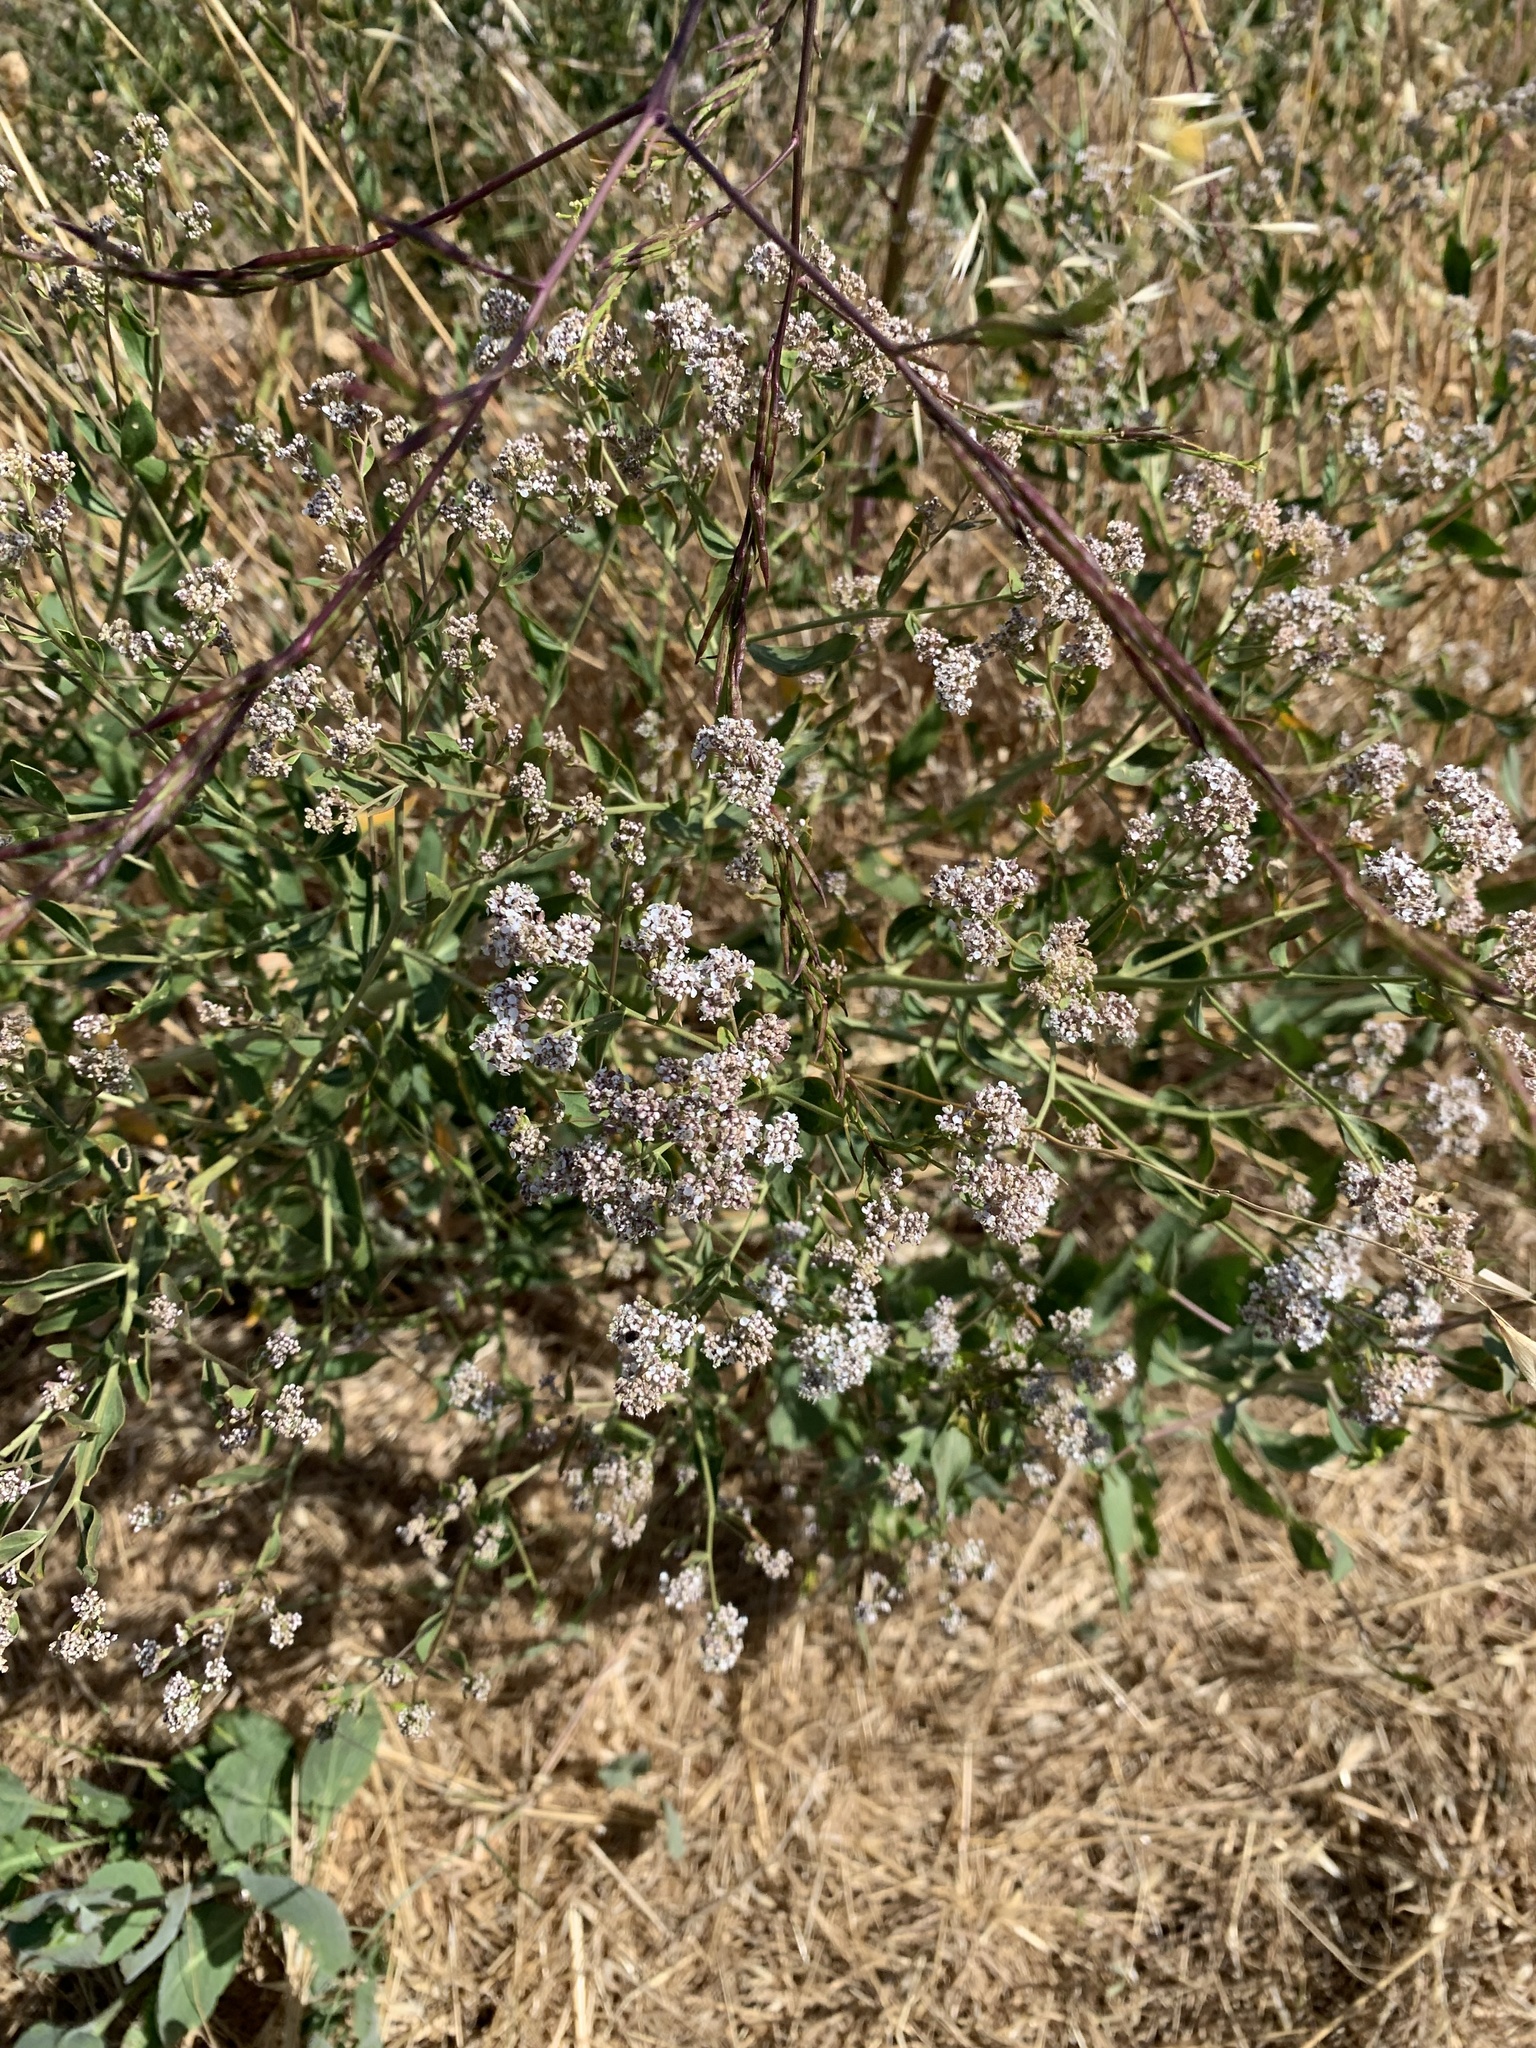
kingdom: Plantae
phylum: Tracheophyta
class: Magnoliopsida
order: Brassicales
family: Brassicaceae
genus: Lepidium
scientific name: Lepidium latifolium
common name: Dittander
